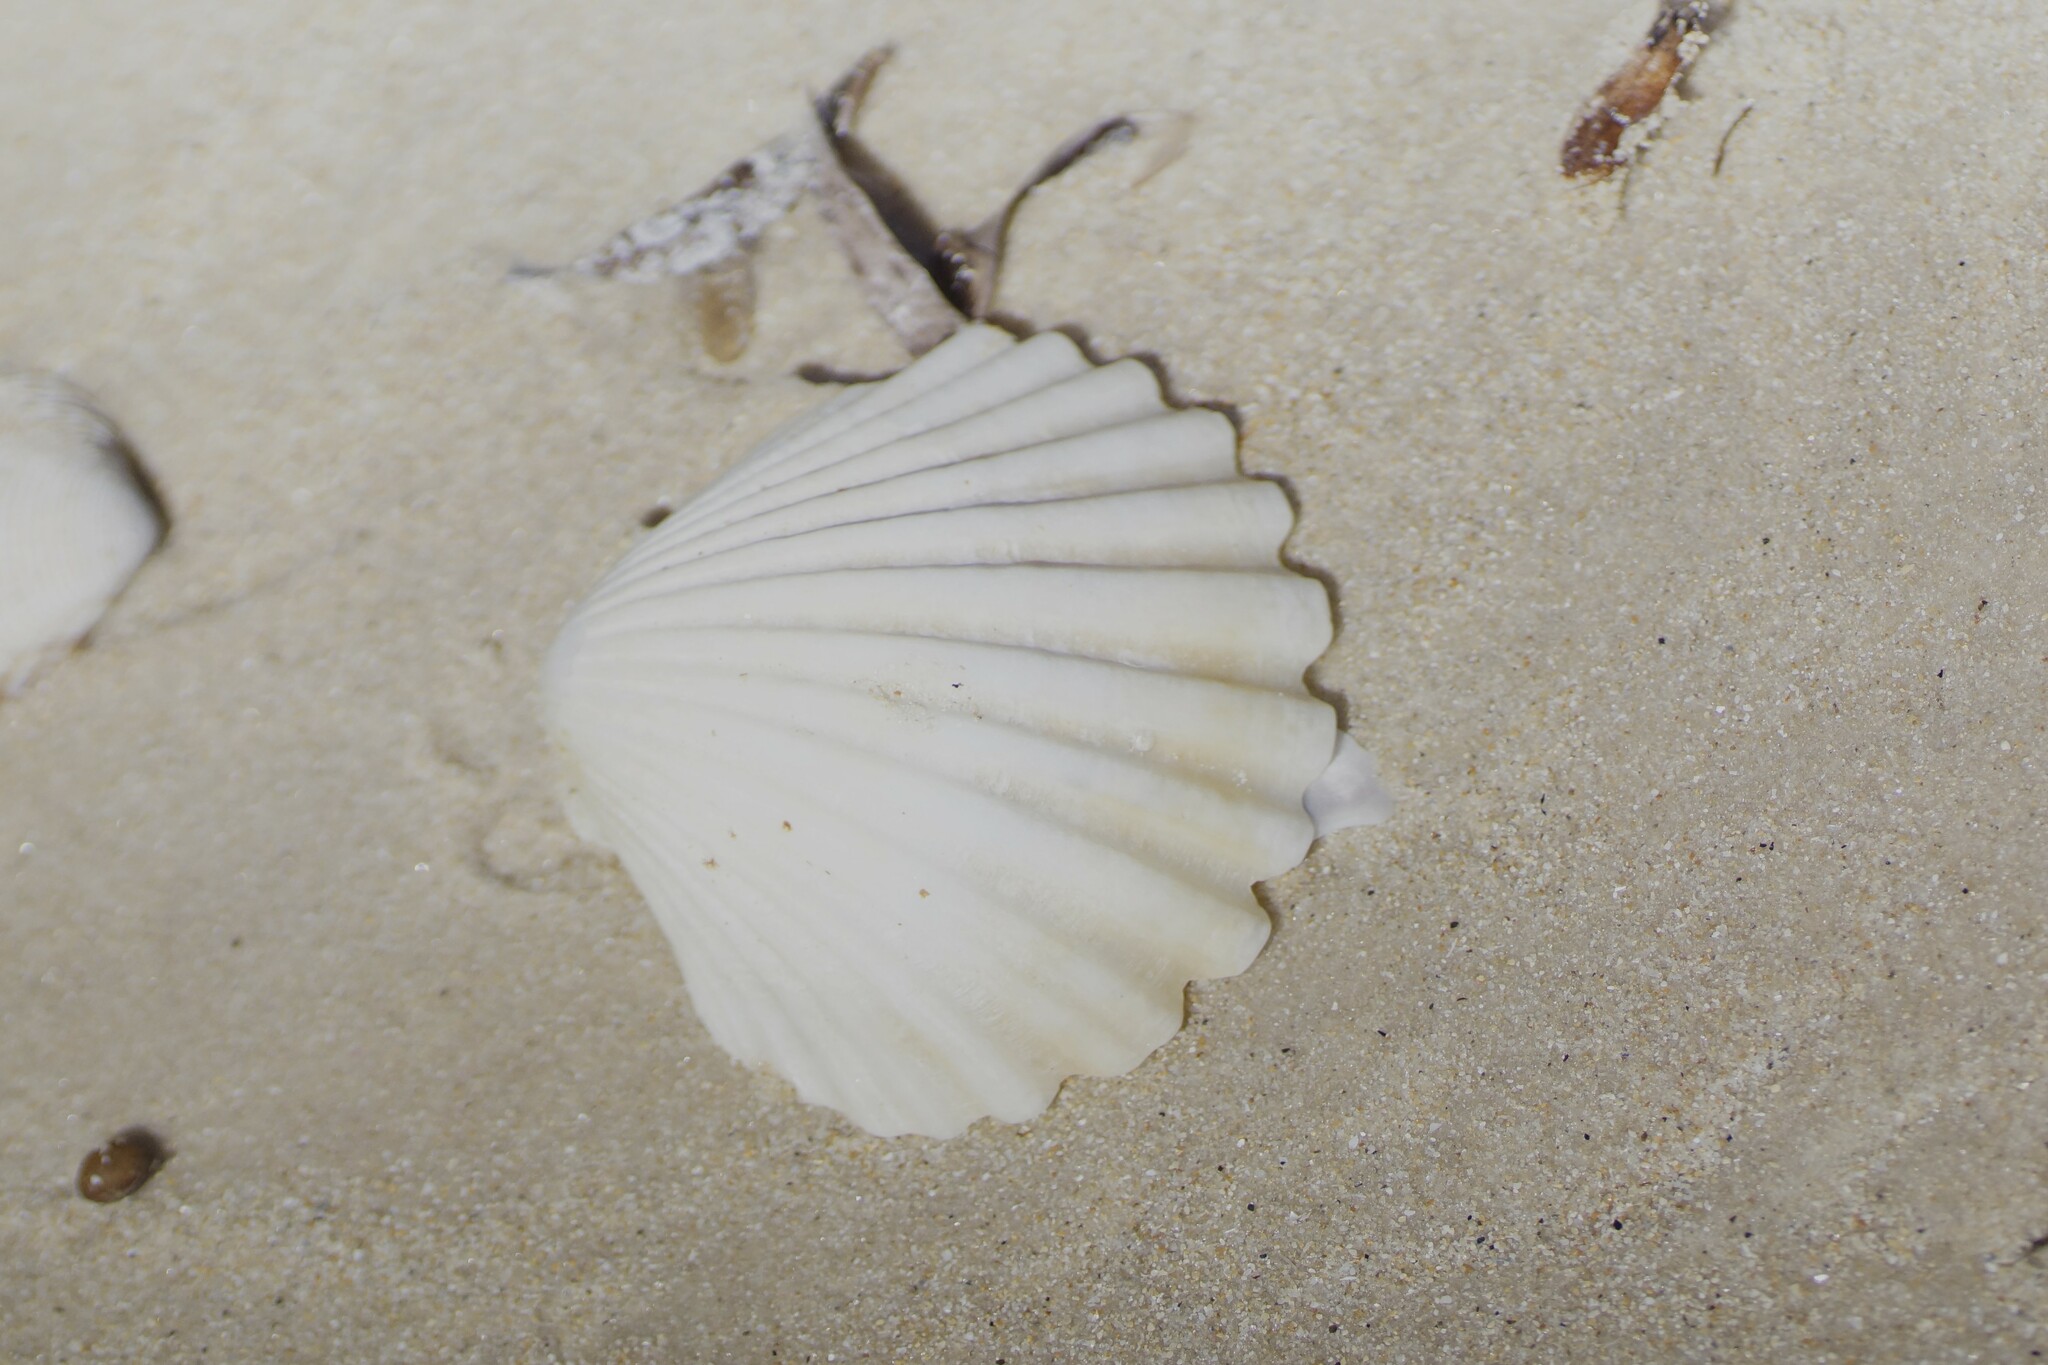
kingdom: Animalia
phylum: Mollusca
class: Bivalvia
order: Pectinida
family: Pectinidae
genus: Pecten
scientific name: Pecten fumatus
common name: Australian scallop
